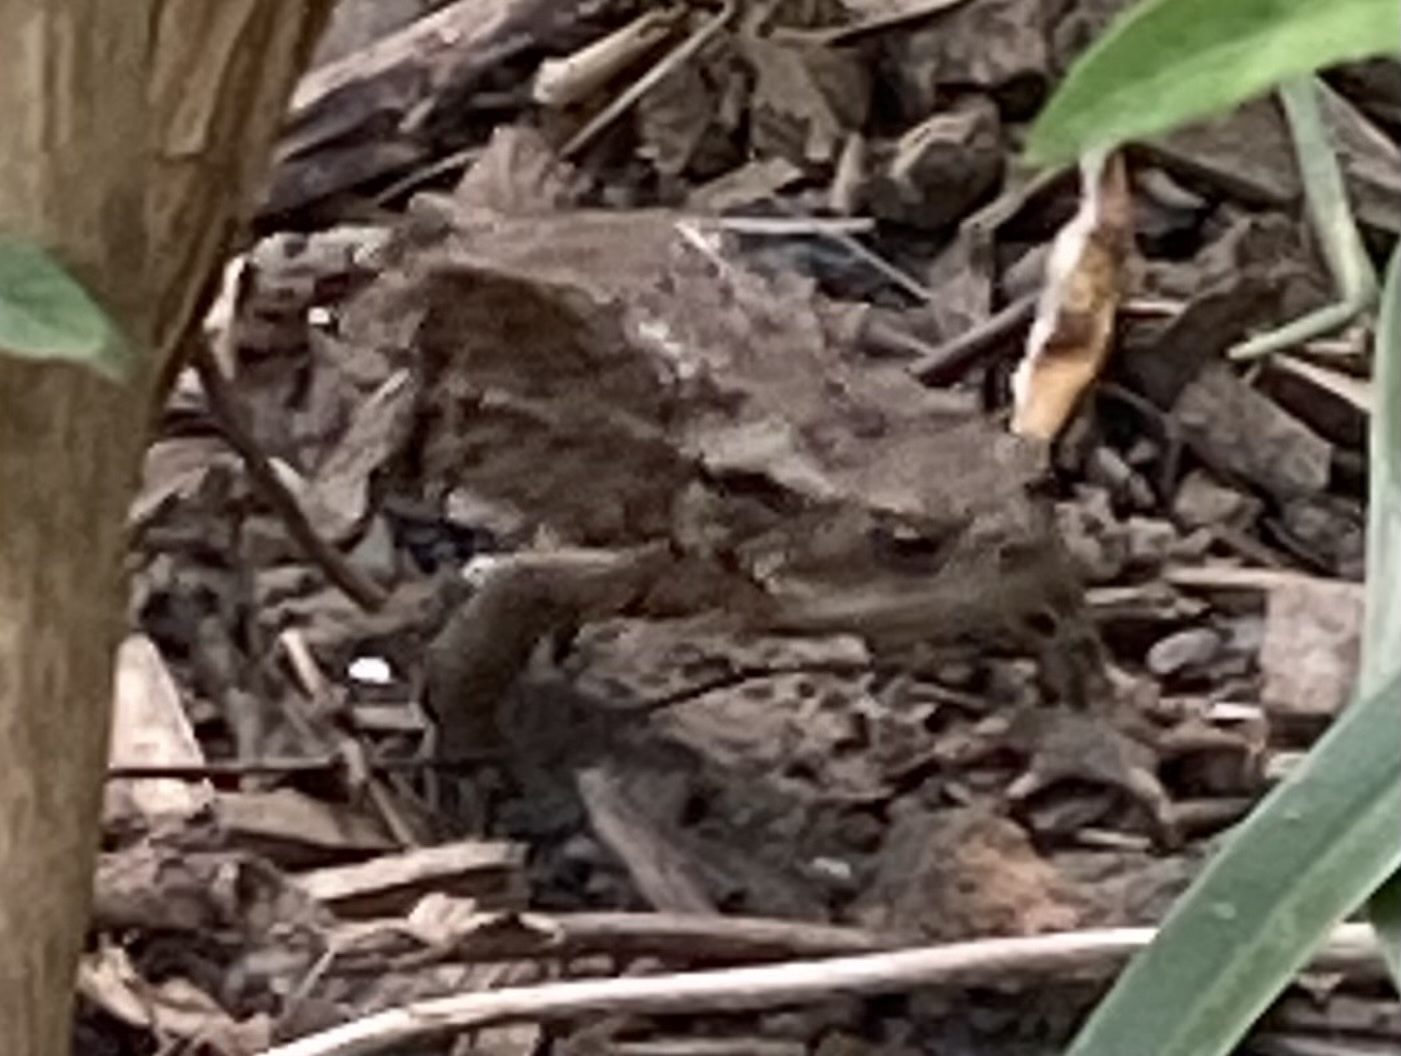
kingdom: Animalia
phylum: Chordata
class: Amphibia
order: Anura
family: Bufonidae
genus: Bufo
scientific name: Bufo bufo
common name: Common toad
